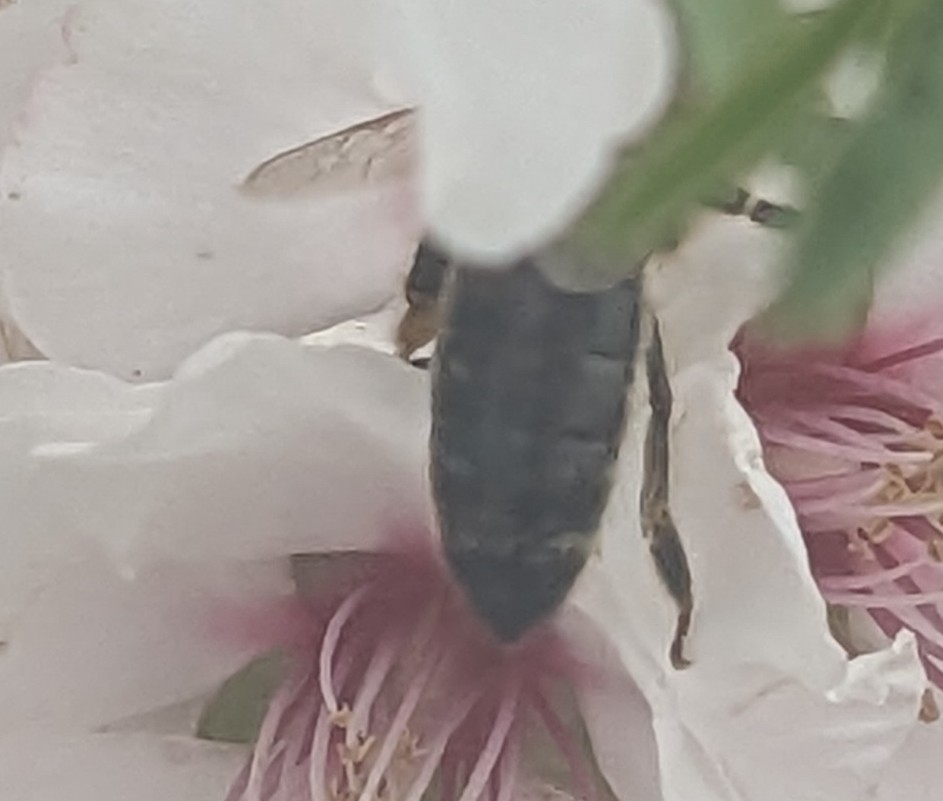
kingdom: Animalia
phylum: Arthropoda
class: Insecta
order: Hymenoptera
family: Apidae
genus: Apis
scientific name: Apis mellifera
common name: Honey bee
